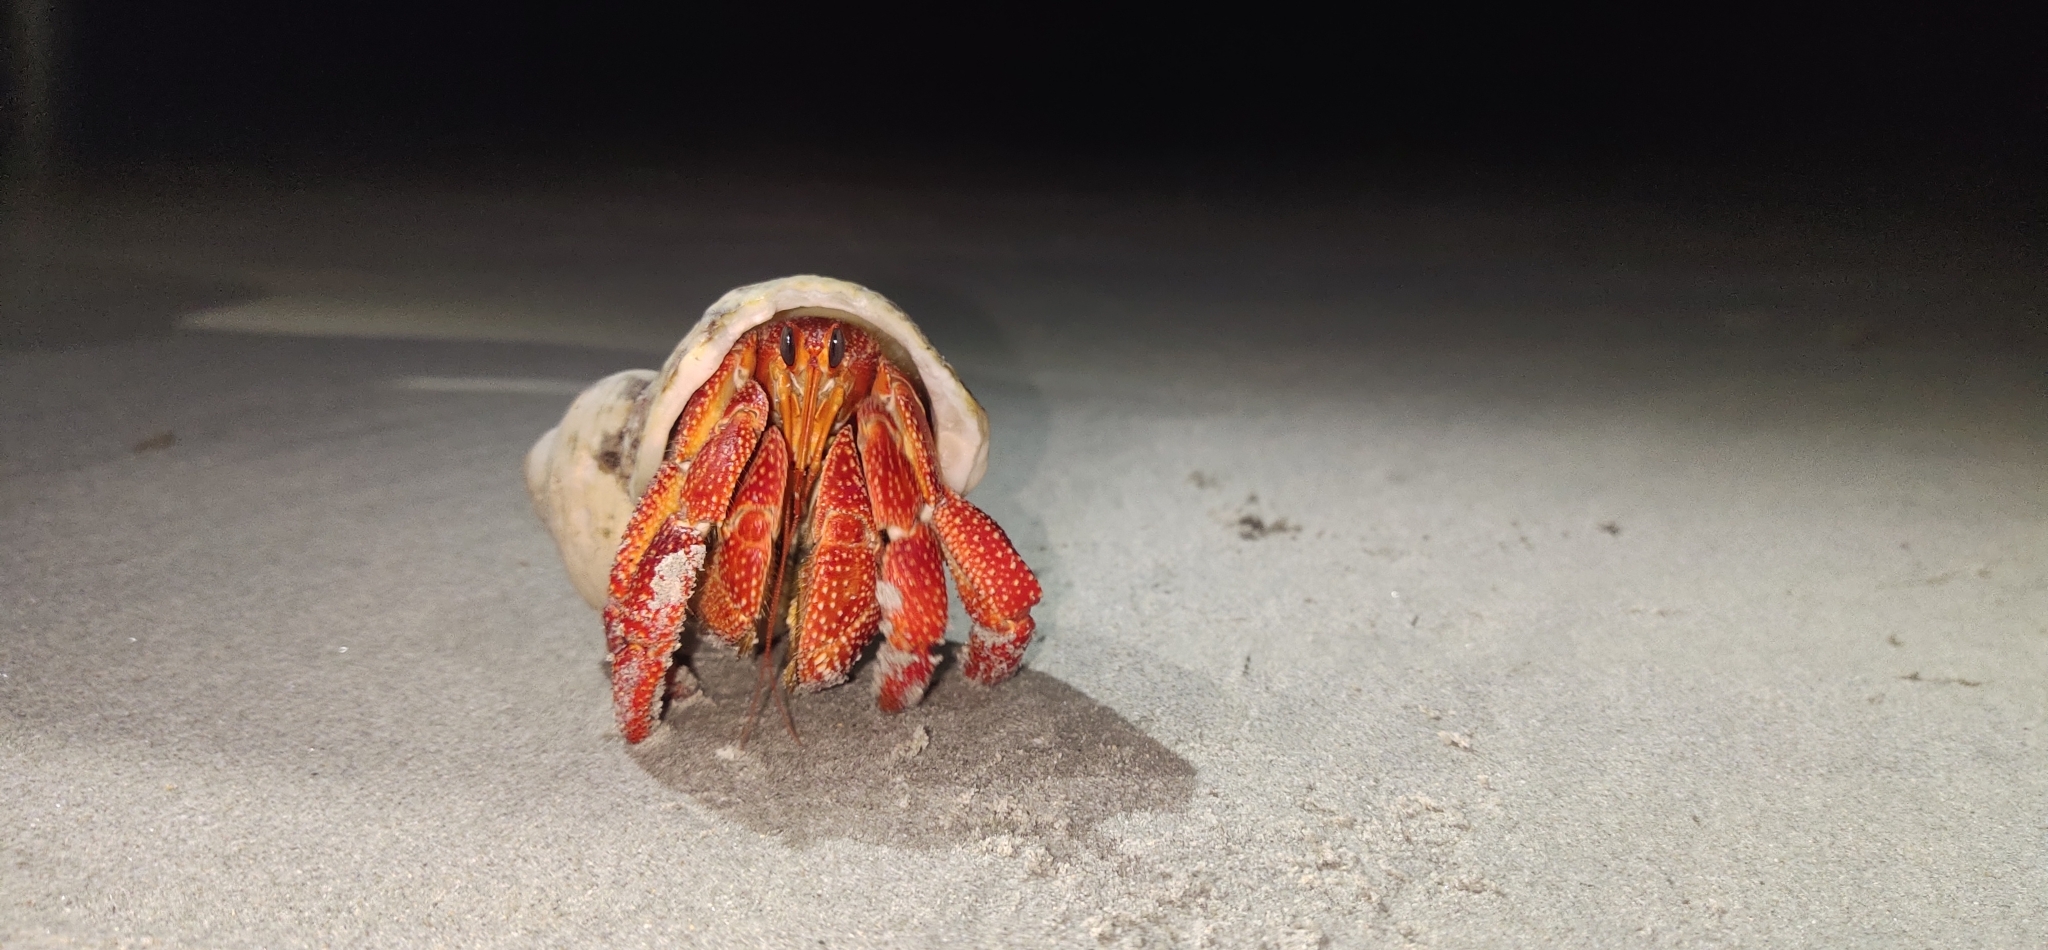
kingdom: Animalia
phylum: Arthropoda
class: Malacostraca
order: Decapoda
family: Coenobitidae
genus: Coenobita
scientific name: Coenobita perlatus
